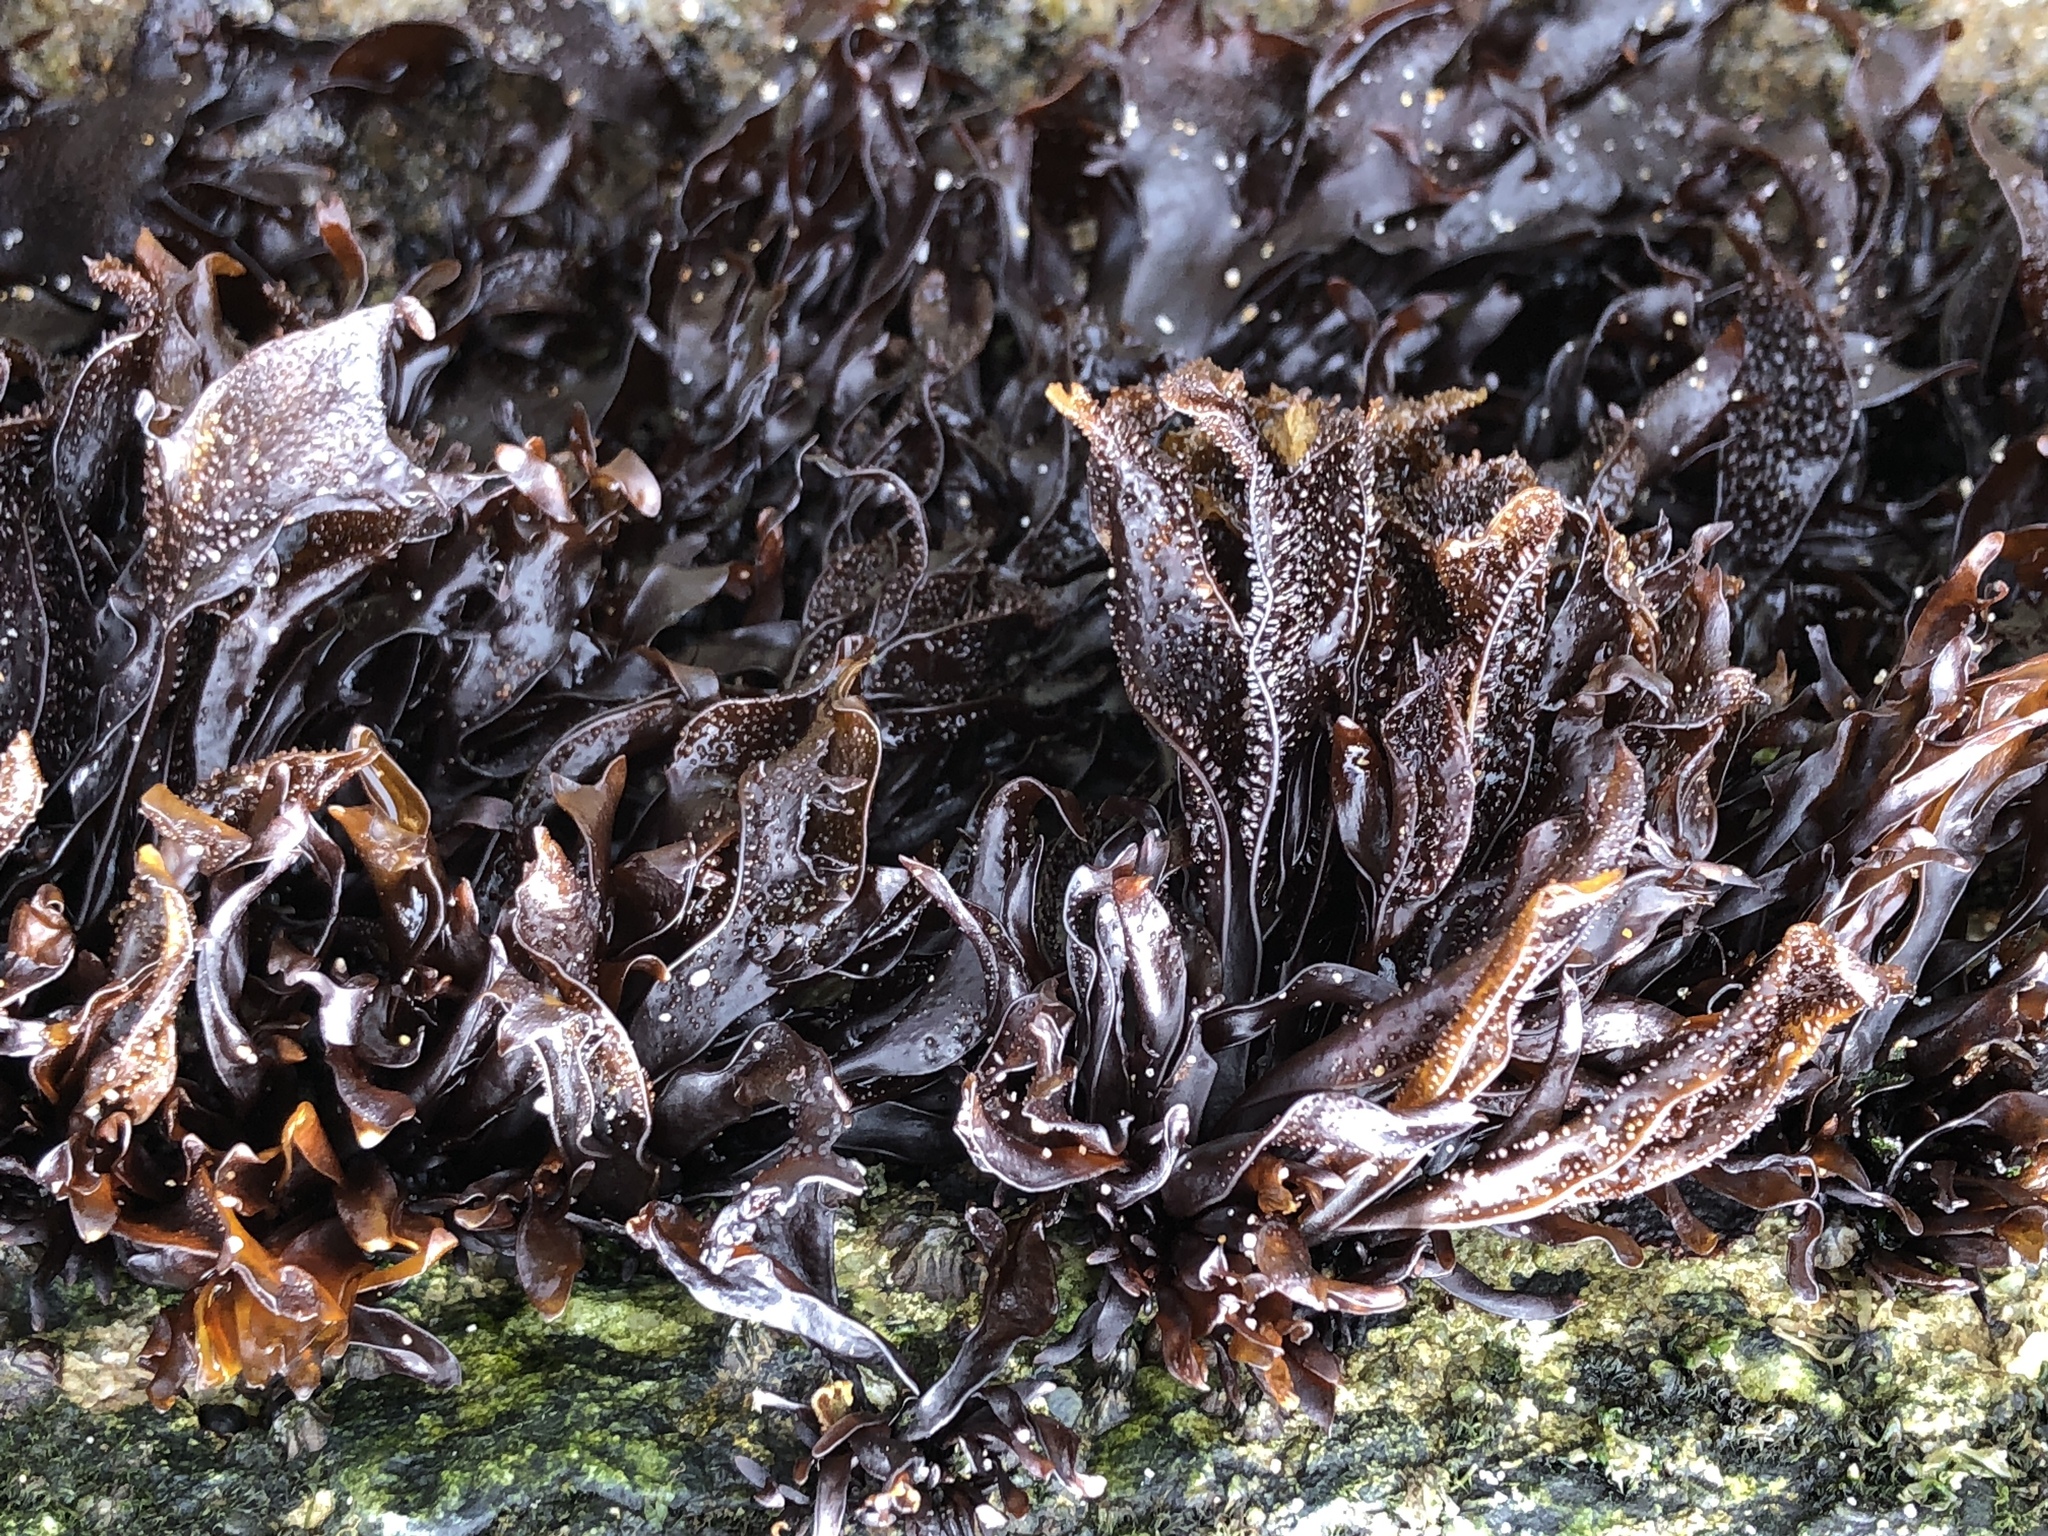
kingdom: Plantae
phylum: Rhodophyta
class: Florideophyceae
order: Gigartinales
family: Phyllophoraceae
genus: Mastocarpus
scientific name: Mastocarpus papillatus
